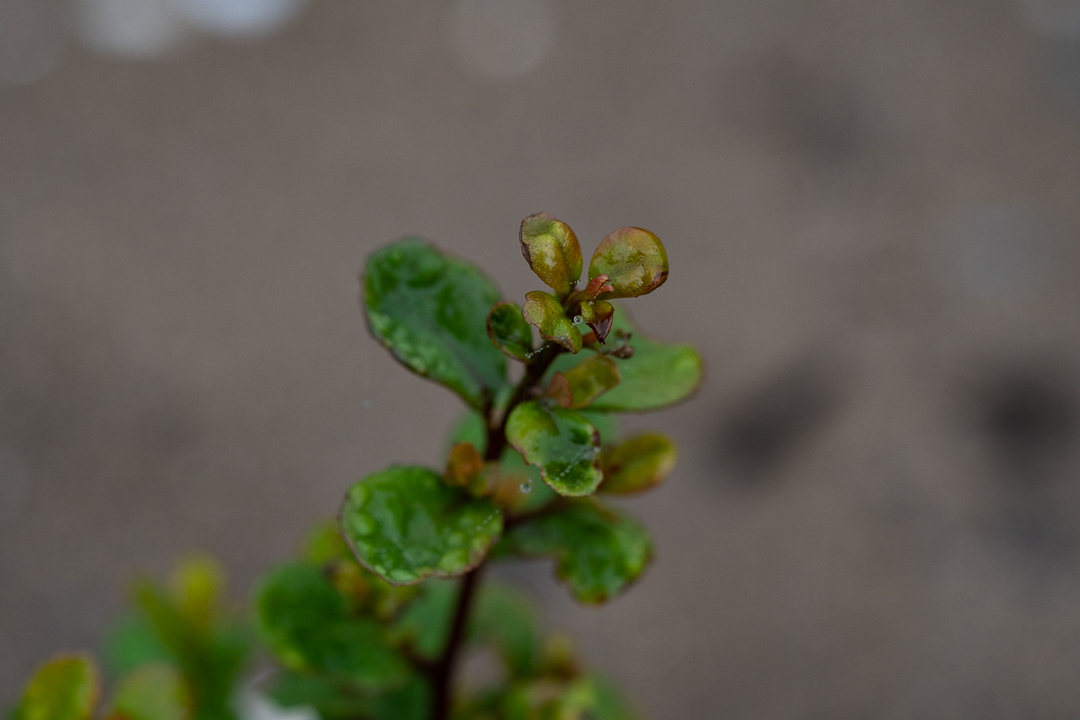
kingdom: Plantae
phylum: Tracheophyta
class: Magnoliopsida
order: Ericales
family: Primulaceae
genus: Myrsine
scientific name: Myrsine africana
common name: African-boxwood
